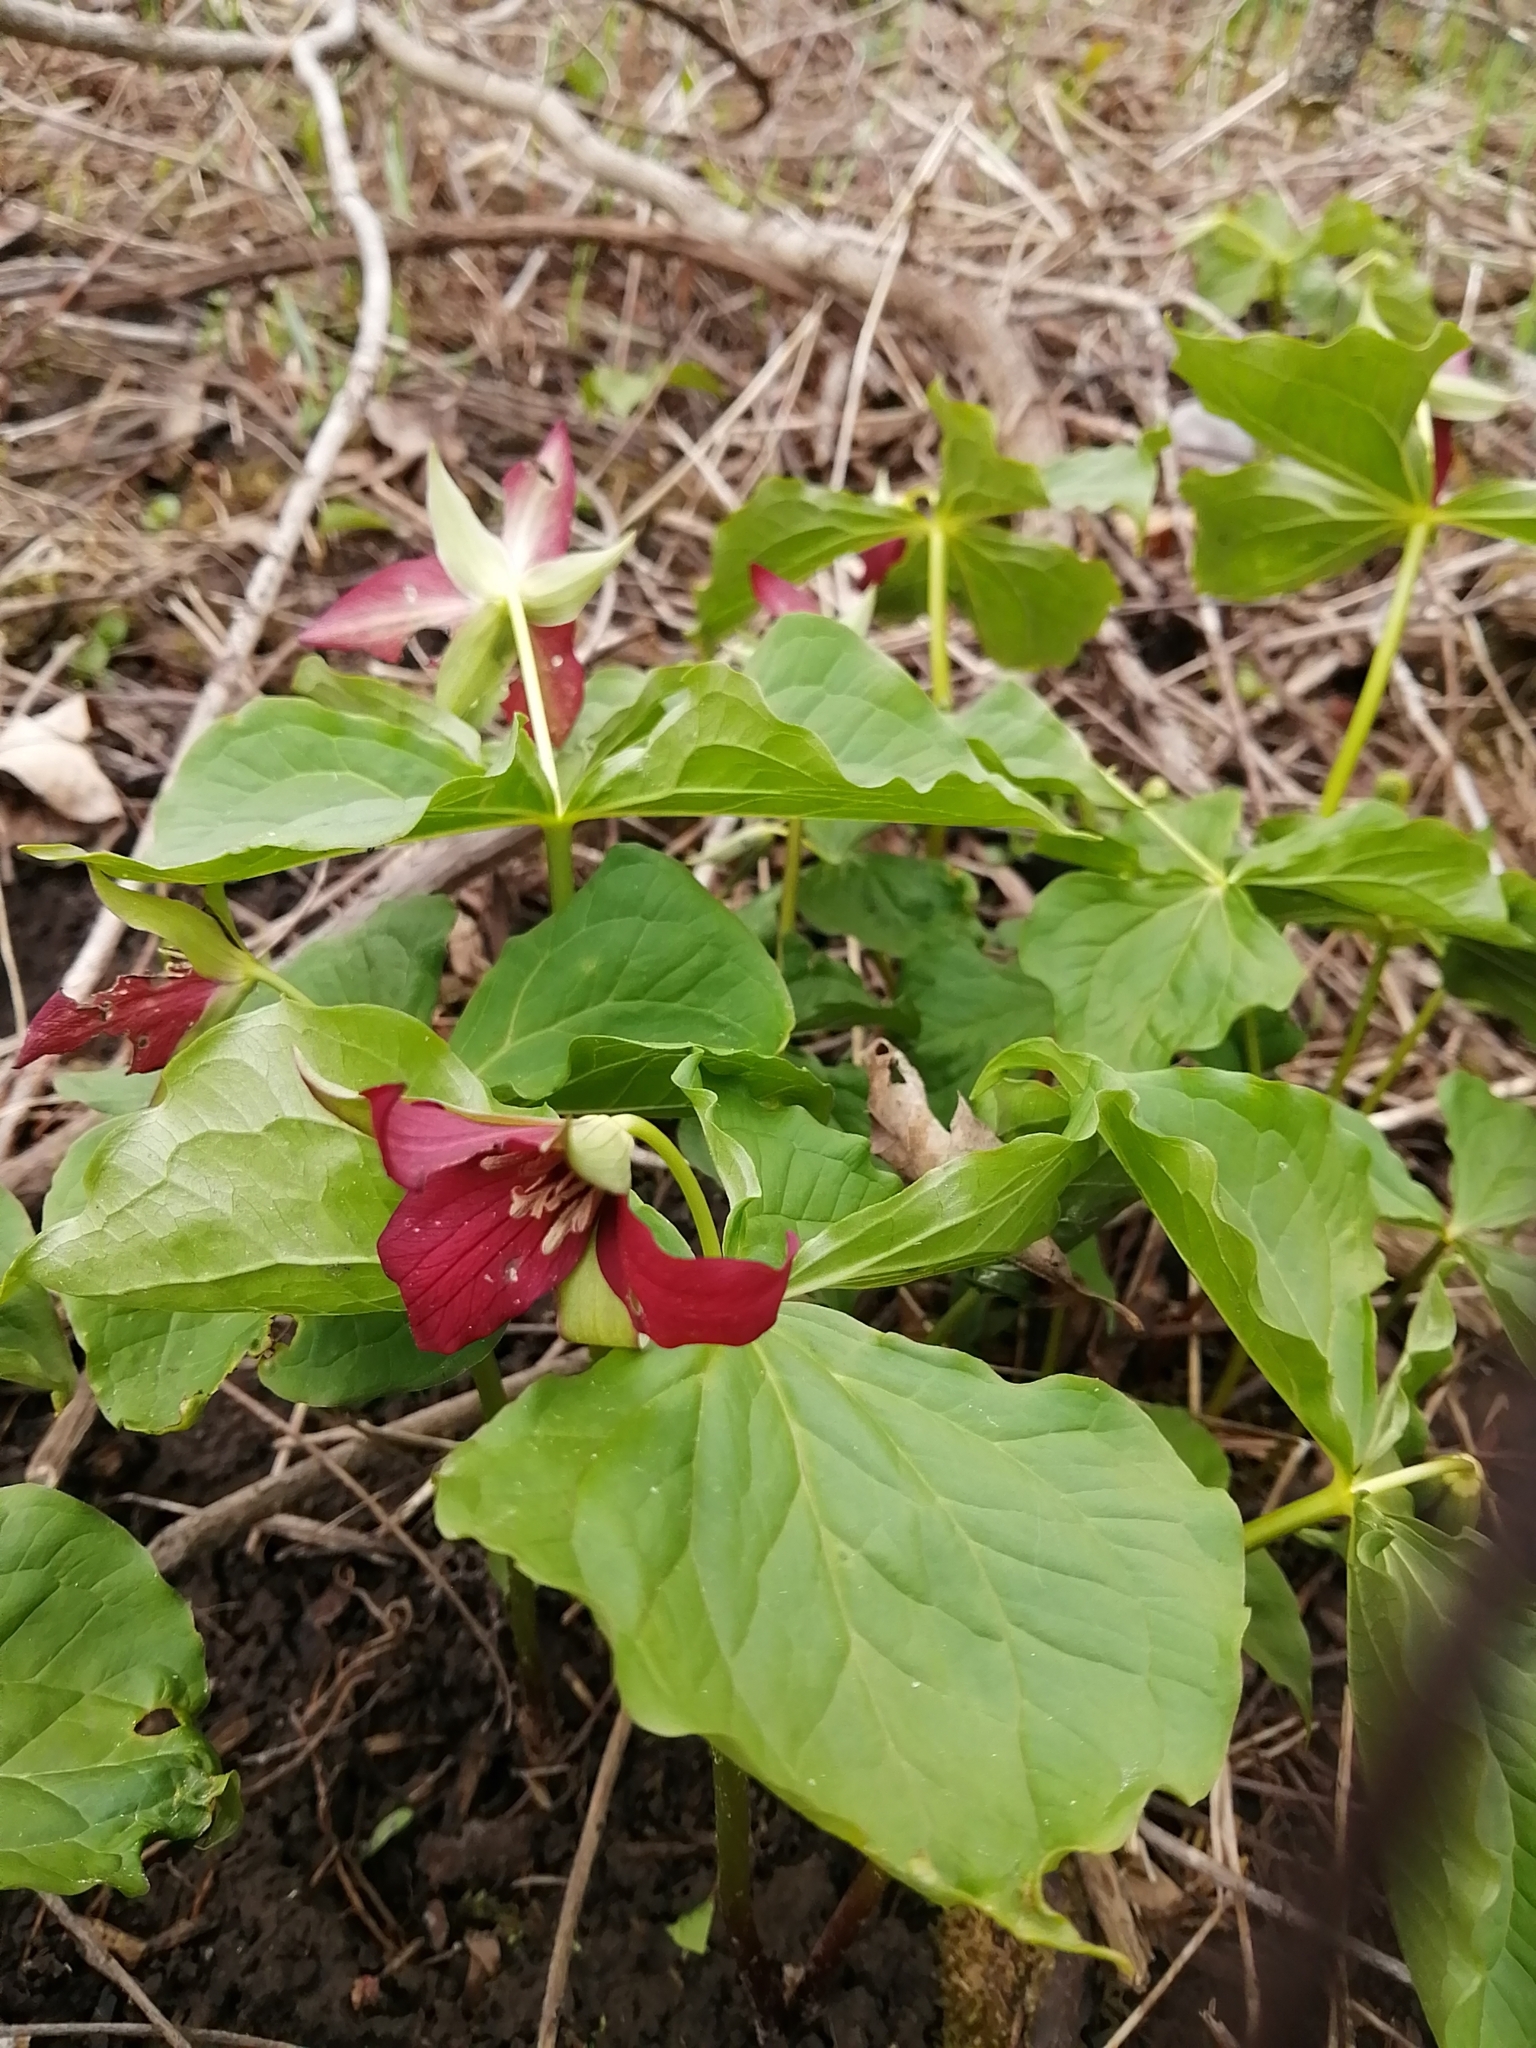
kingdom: Plantae
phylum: Tracheophyta
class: Liliopsida
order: Liliales
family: Melanthiaceae
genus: Trillium
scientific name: Trillium erectum
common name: Purple trillium
